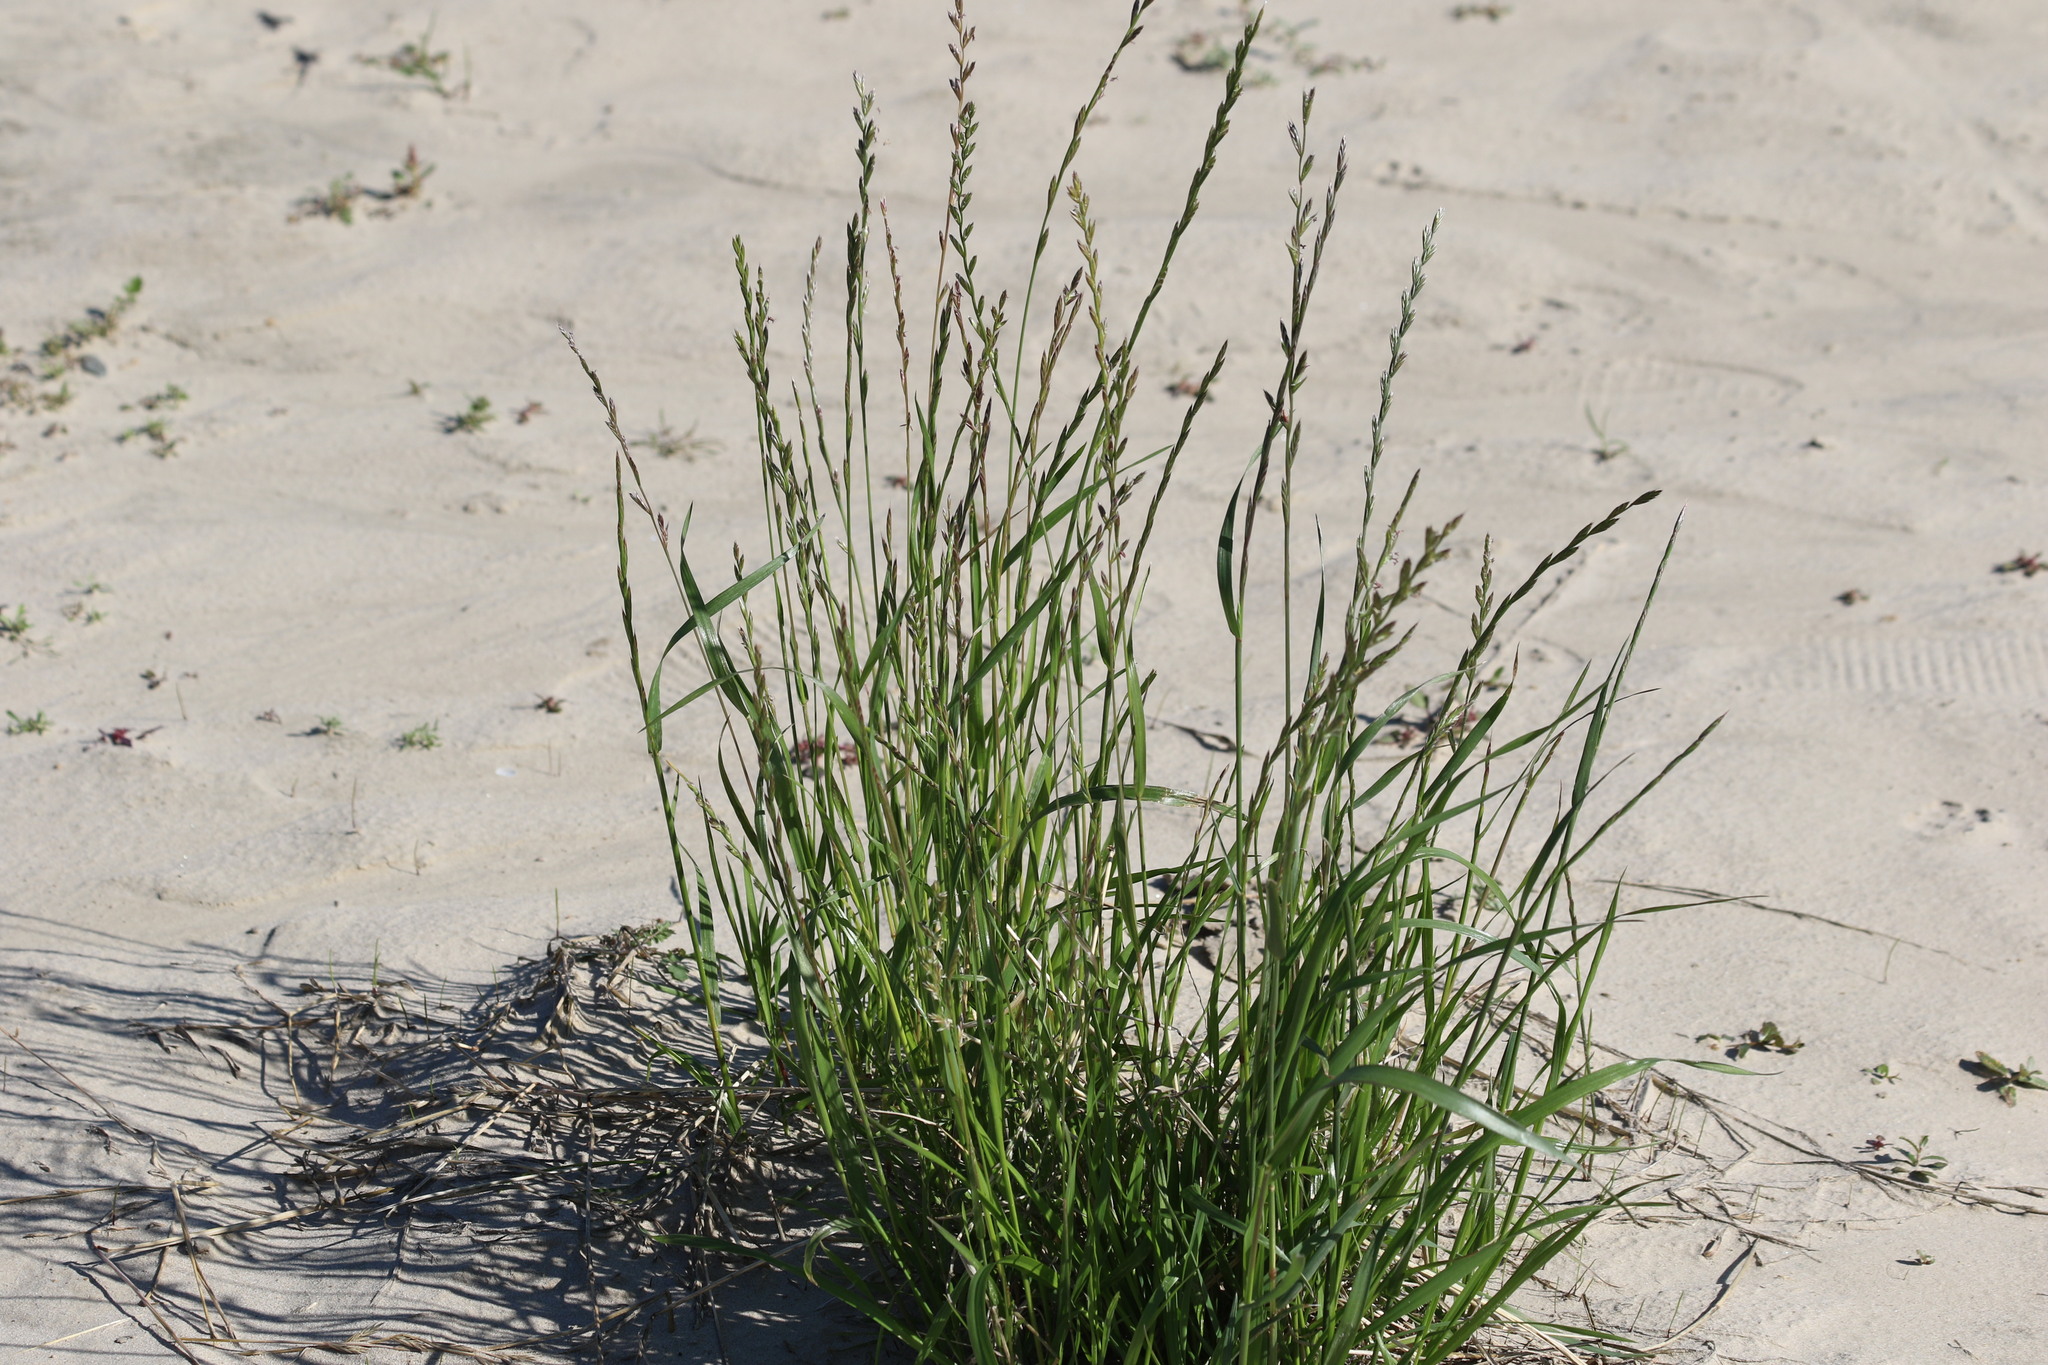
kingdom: Plantae
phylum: Tracheophyta
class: Liliopsida
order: Poales
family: Poaceae
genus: Lolium
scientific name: Lolium perenne
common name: Perennial ryegrass
